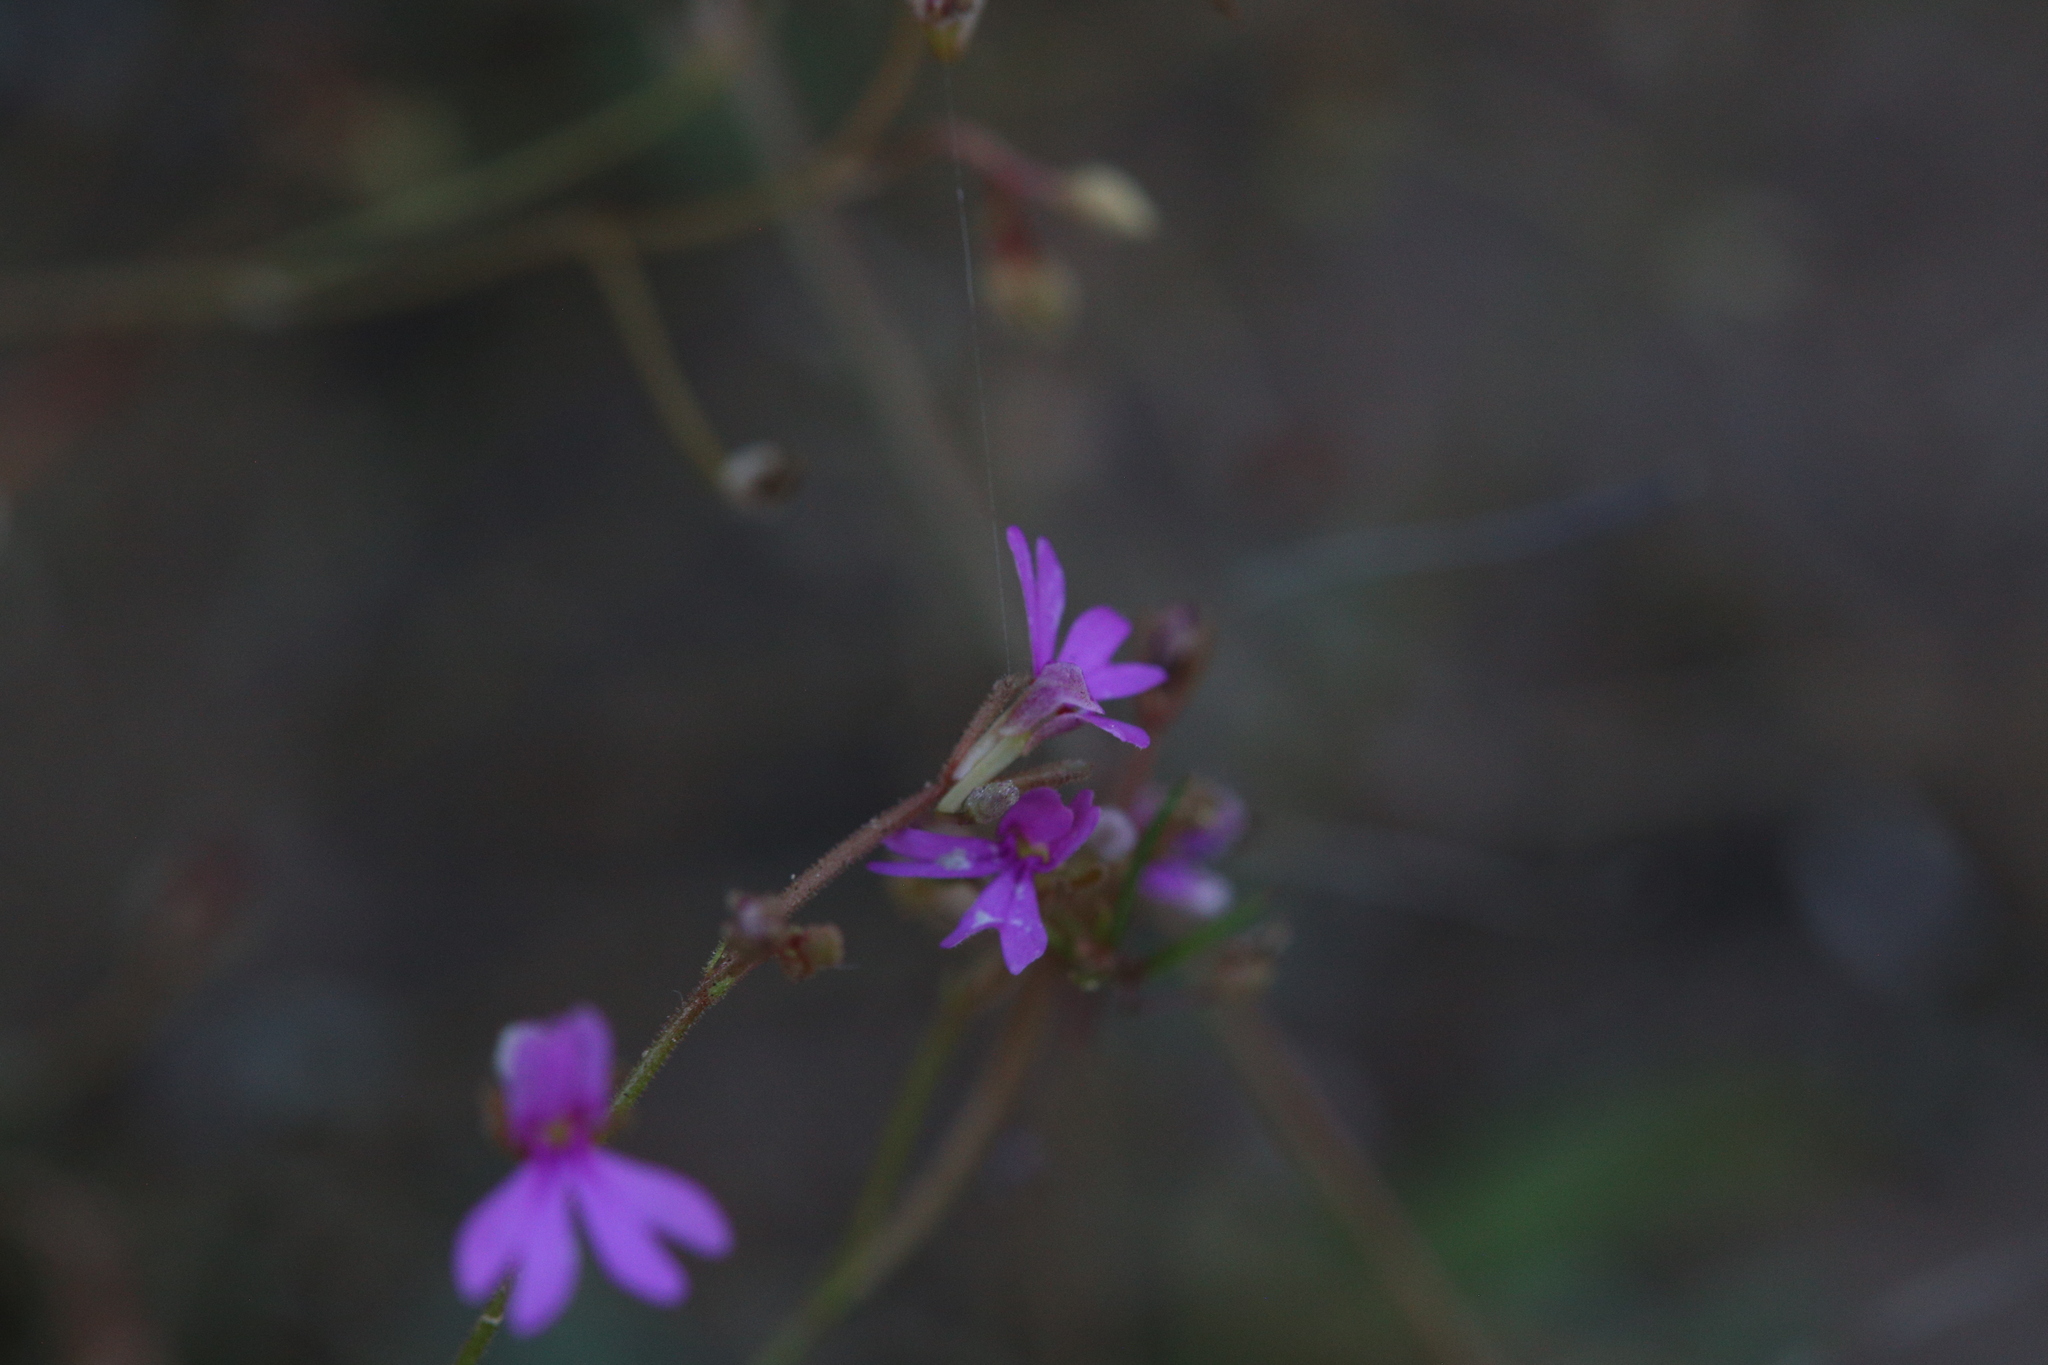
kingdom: Plantae
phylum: Tracheophyta
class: Magnoliopsida
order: Asterales
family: Stylidiaceae
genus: Stylidium
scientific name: Stylidium lobuliflorum
